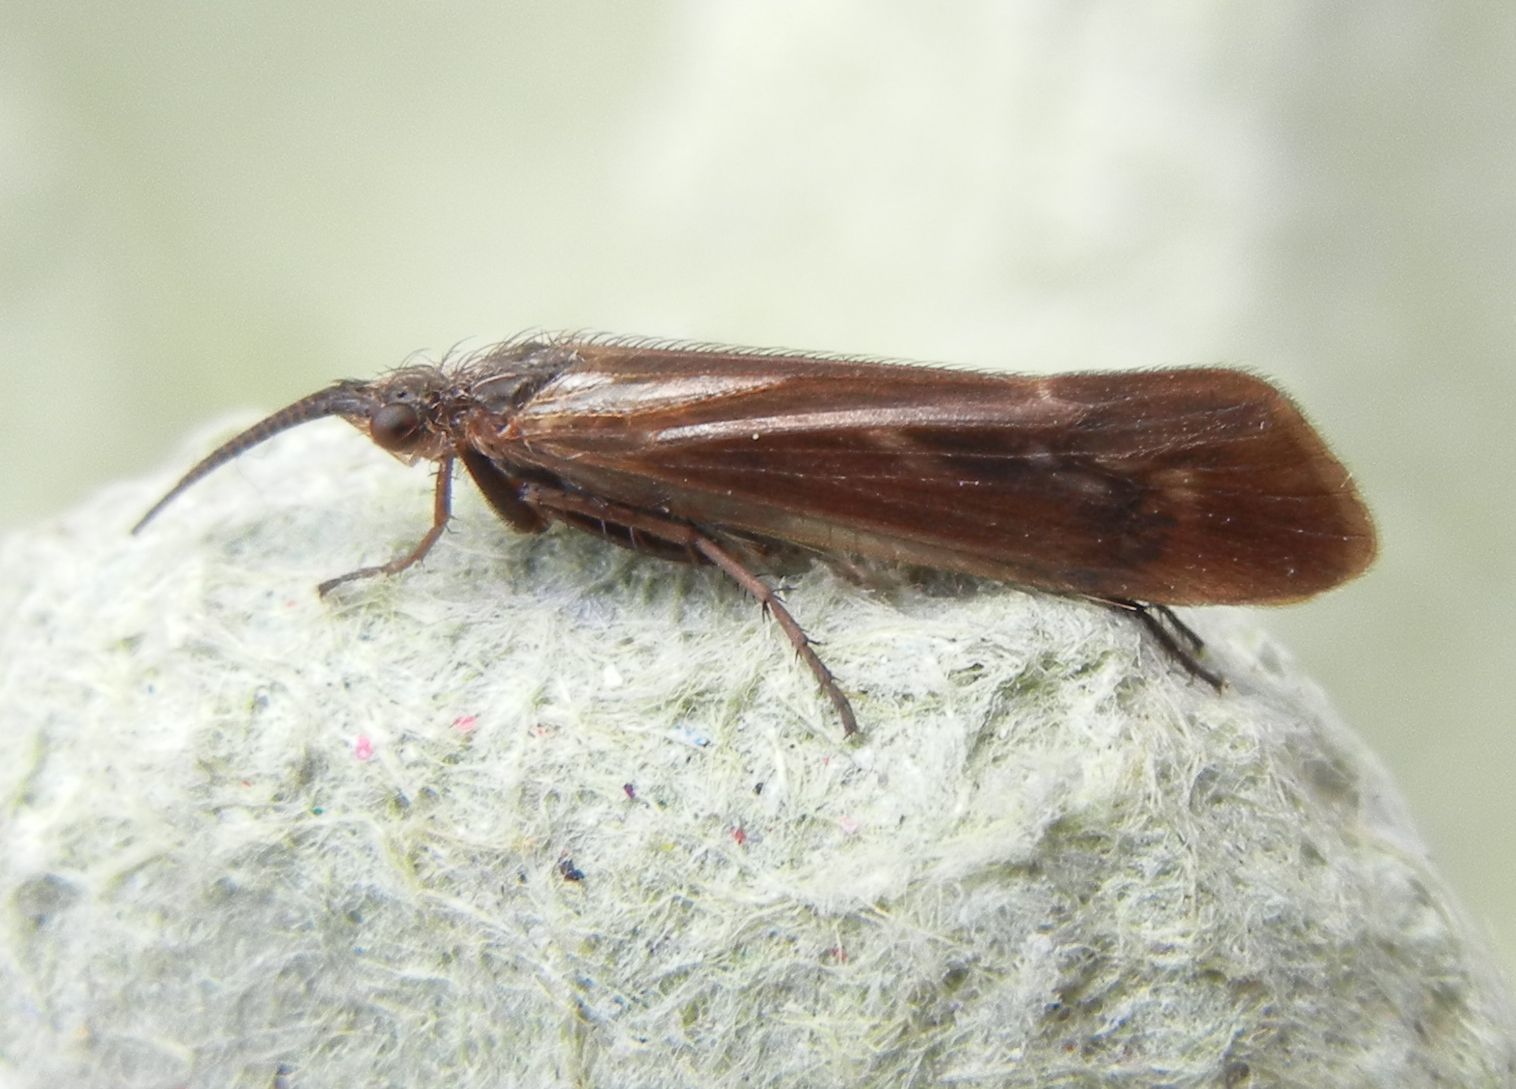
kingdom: Animalia
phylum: Arthropoda
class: Insecta
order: Trichoptera
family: Limnephilidae
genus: Limnephilus
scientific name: Limnephilus auricula
